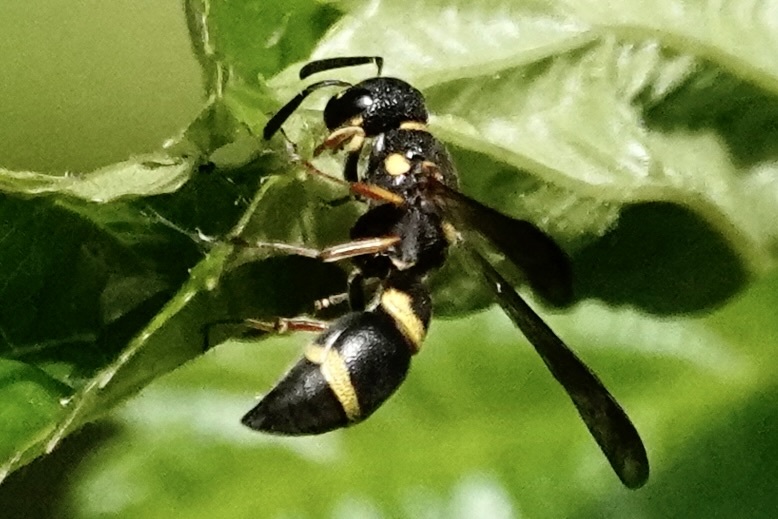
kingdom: Animalia
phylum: Arthropoda
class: Insecta
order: Hymenoptera
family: Eumenidae
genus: Parancistrocerus
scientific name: Parancistrocerus perennis
